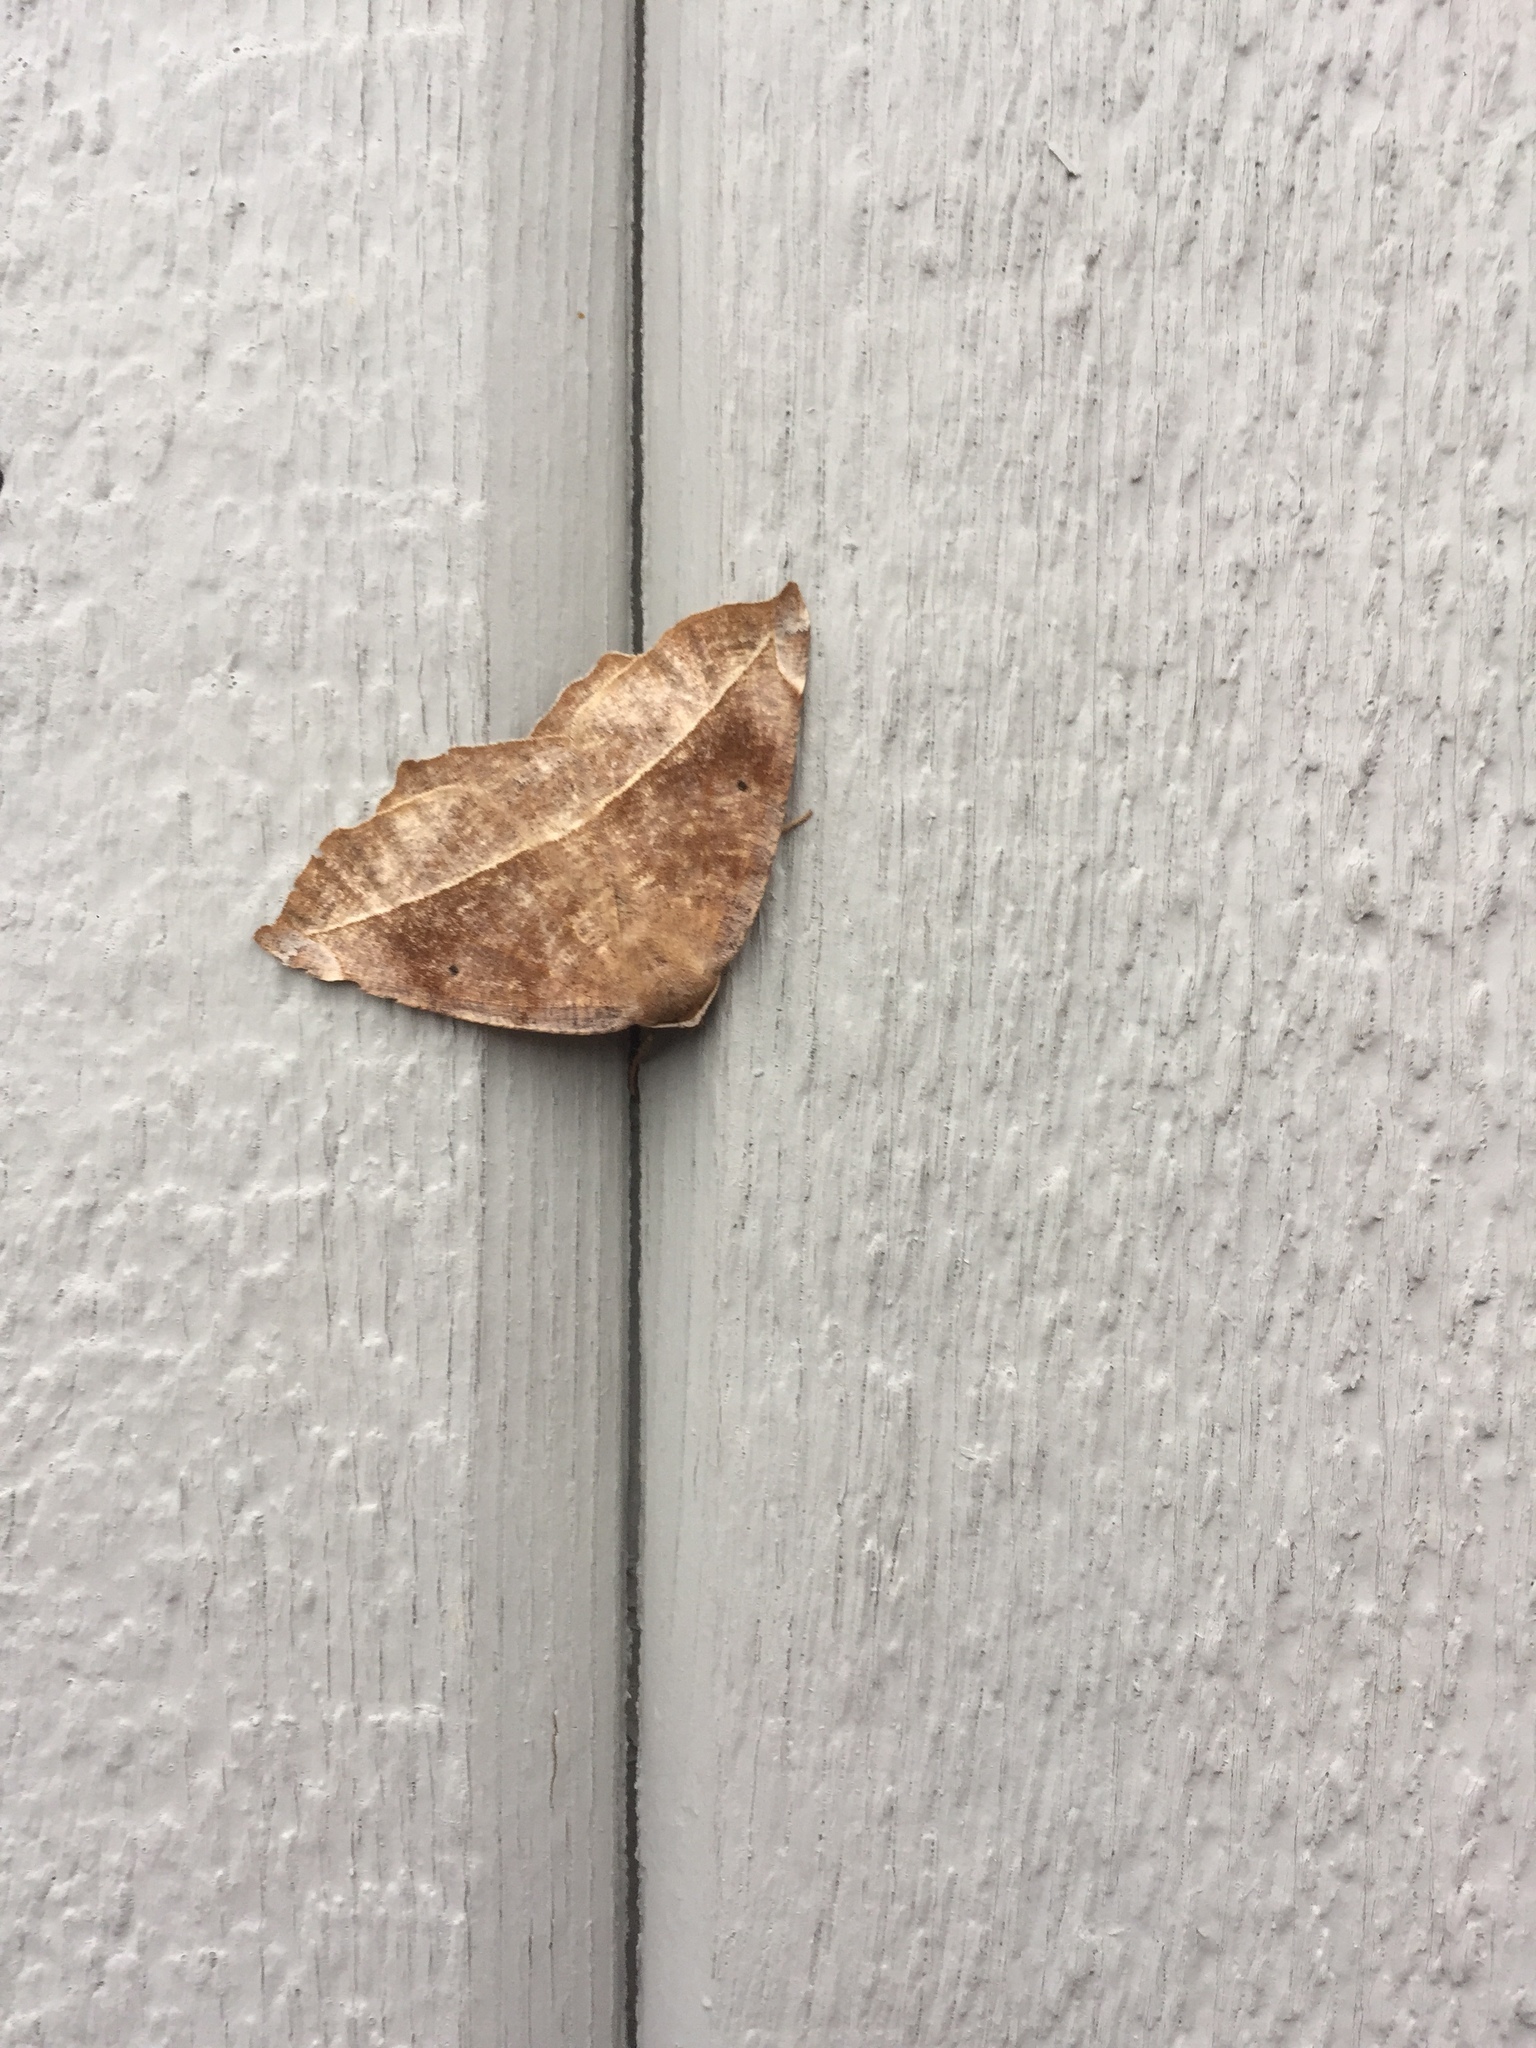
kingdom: Animalia
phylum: Arthropoda
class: Insecta
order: Lepidoptera
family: Geometridae
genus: Eutrapela
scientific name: Eutrapela clemataria
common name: Curved-toothed geometer
